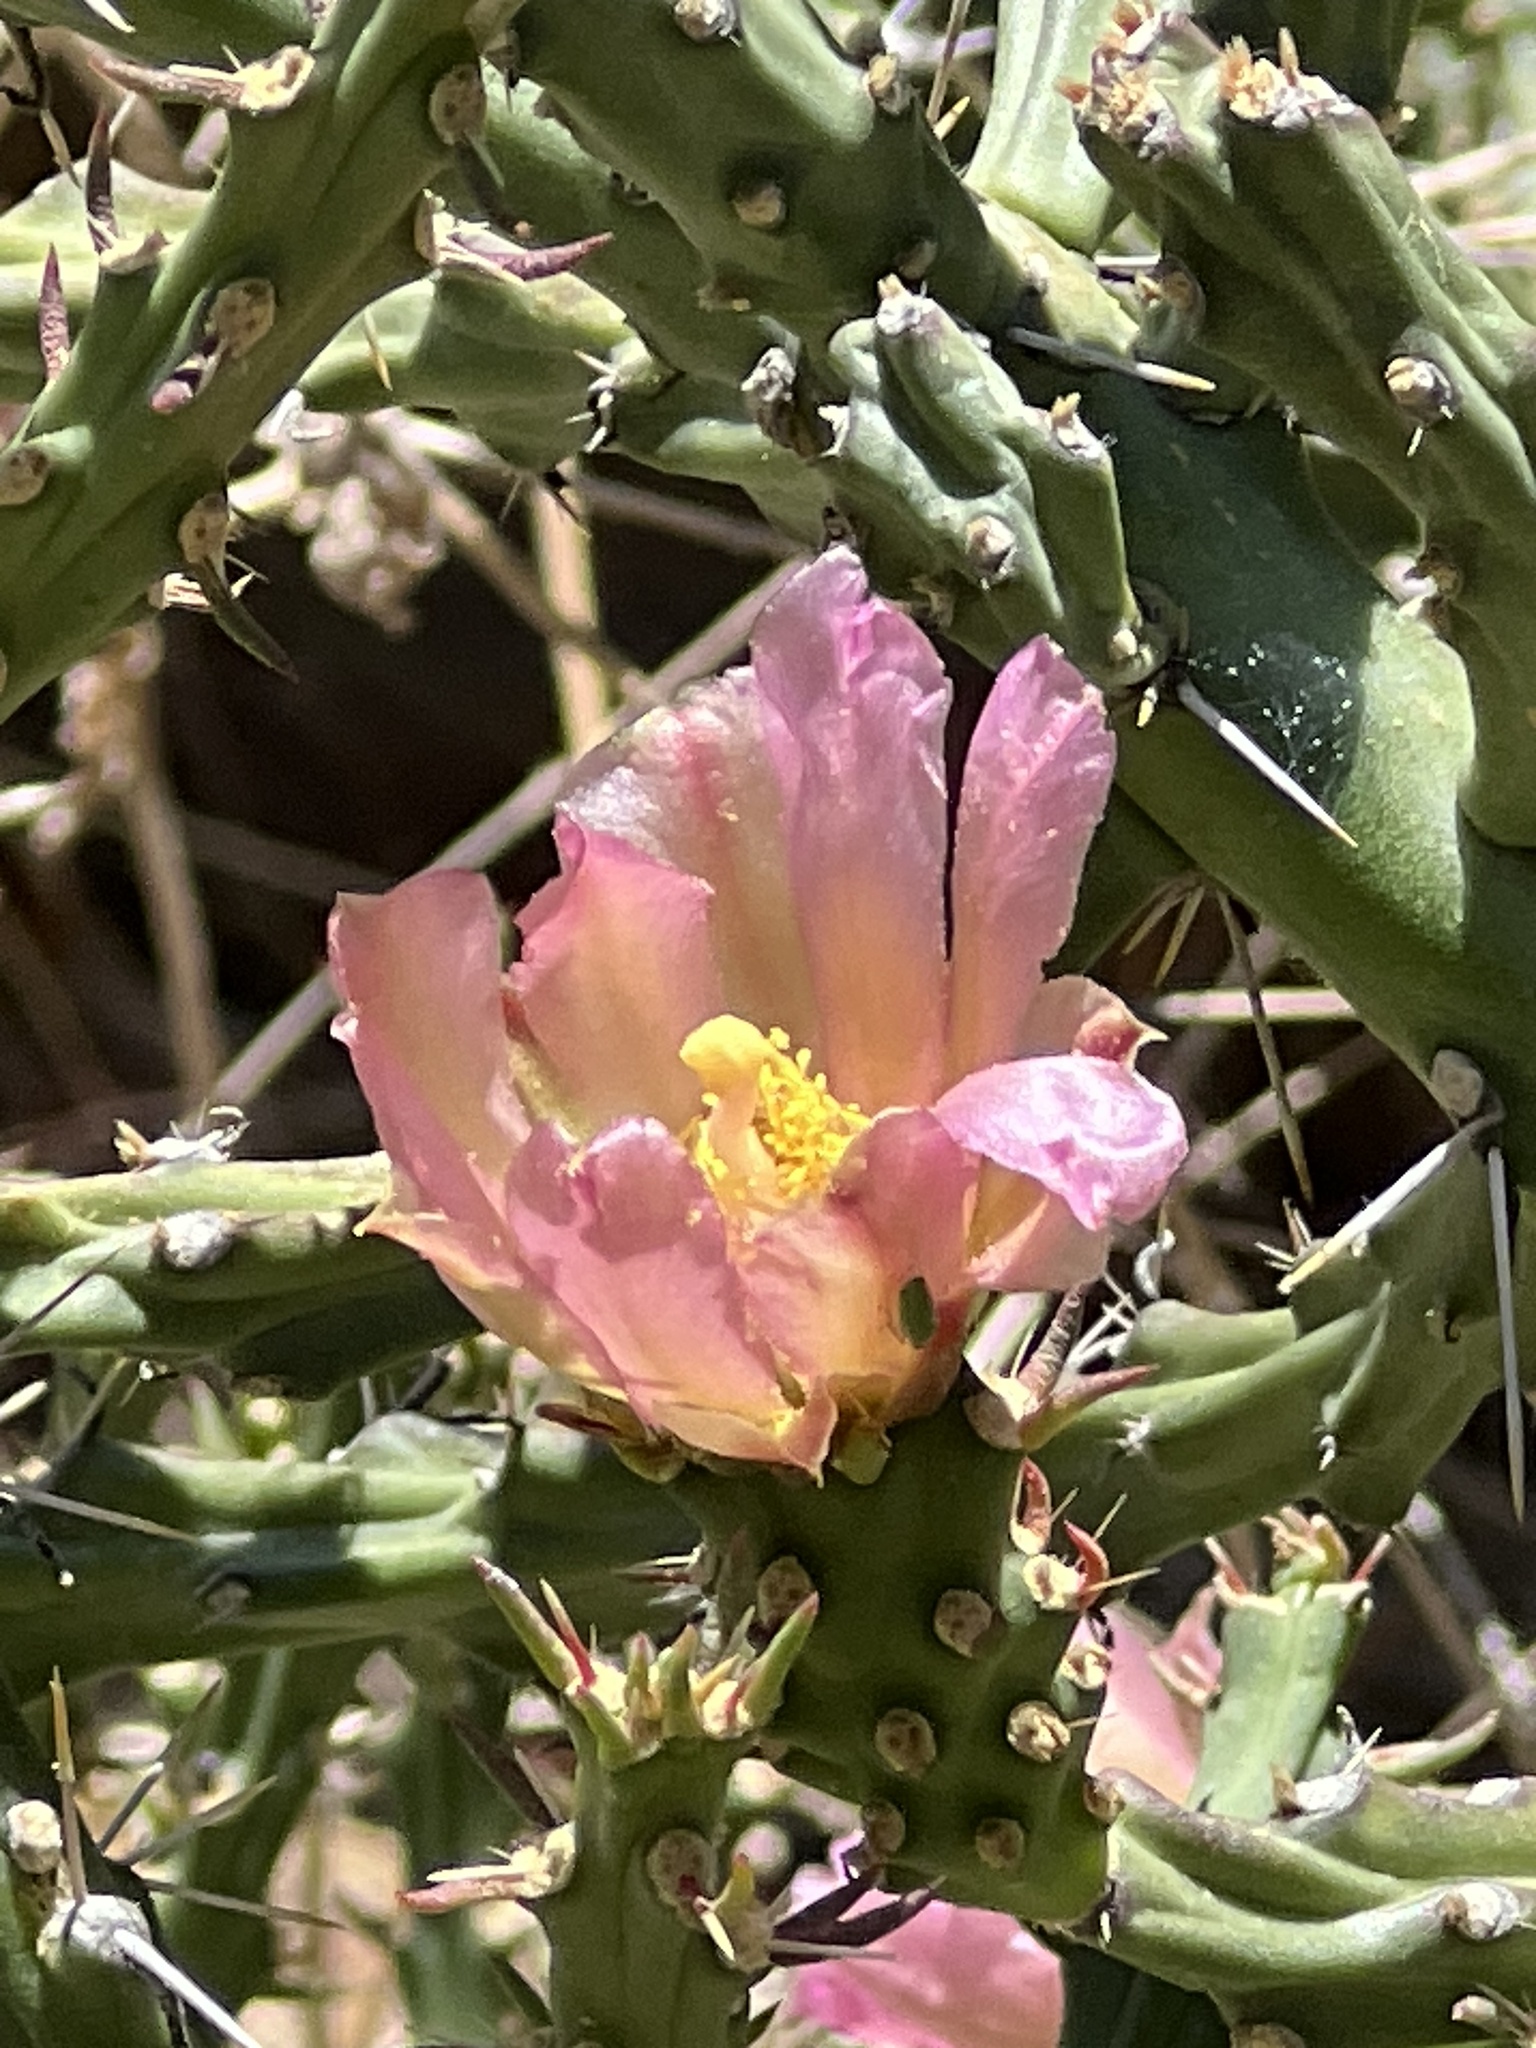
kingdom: Plantae
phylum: Tracheophyta
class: Magnoliopsida
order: Caryophyllales
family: Cactaceae
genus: Cylindropuntia
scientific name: Cylindropuntia kleiniae
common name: Klein's cholla
